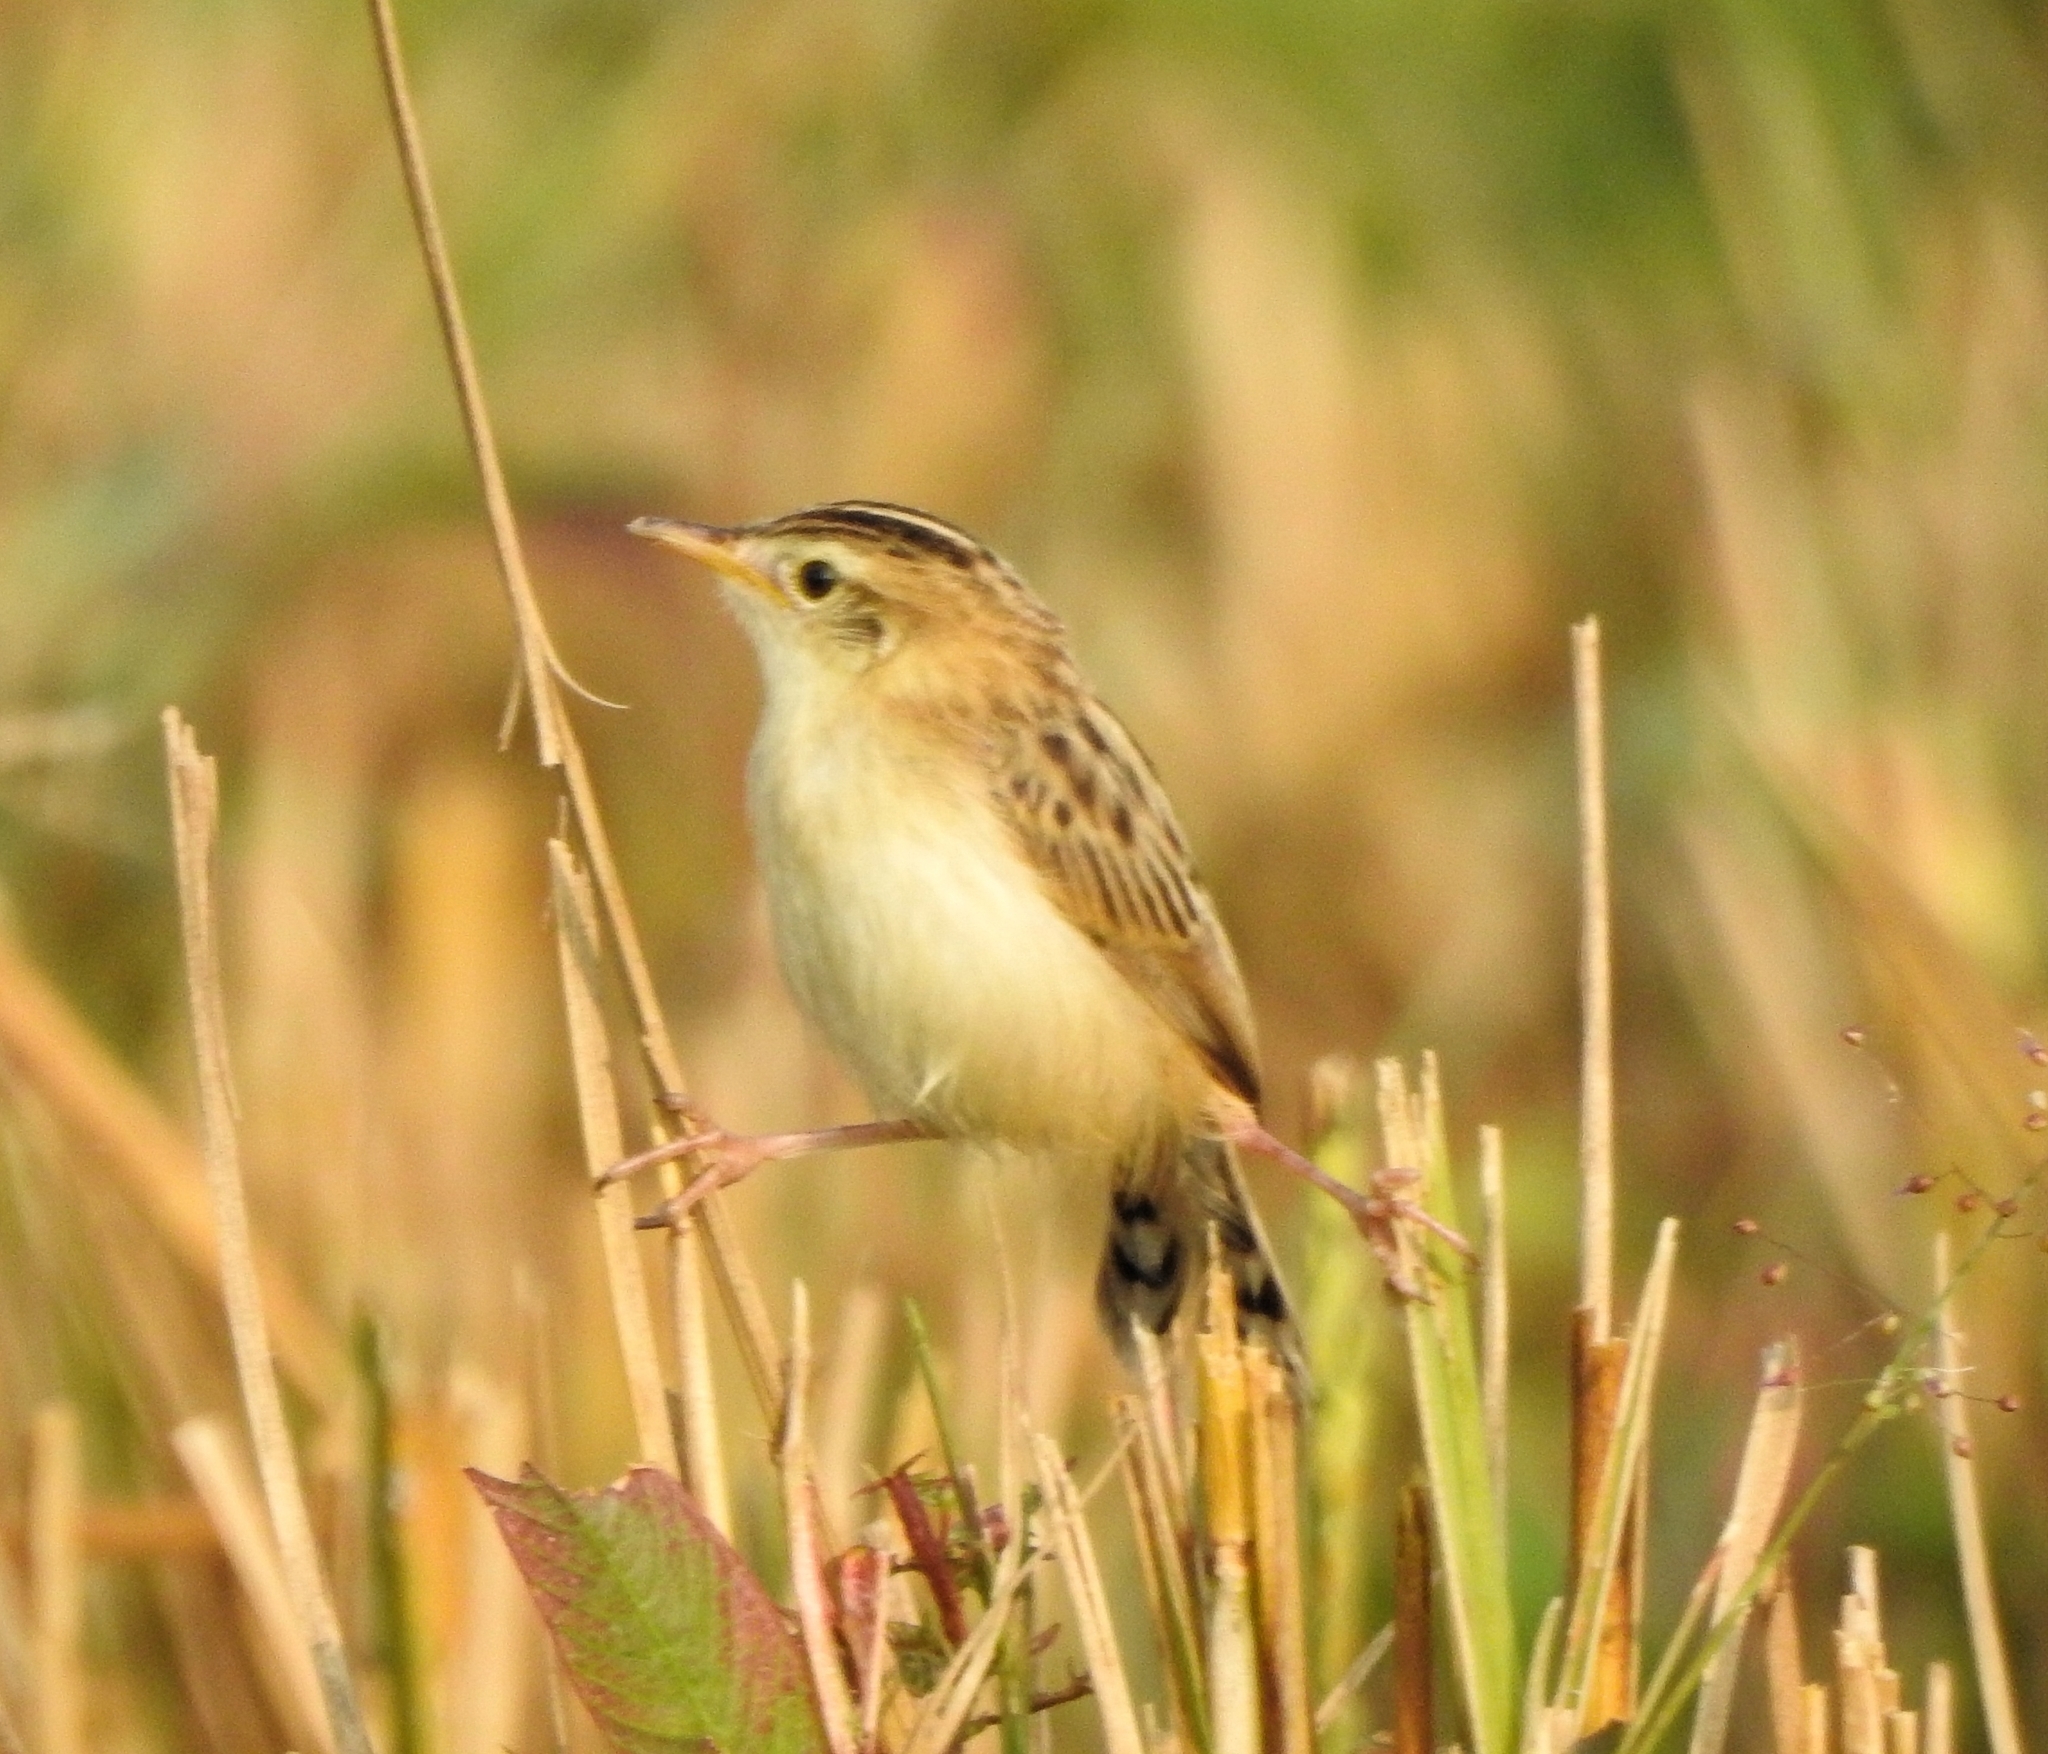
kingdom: Animalia
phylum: Chordata
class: Aves
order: Passeriformes
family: Cisticolidae
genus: Cisticola
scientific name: Cisticola juncidis
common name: Zitting cisticola
